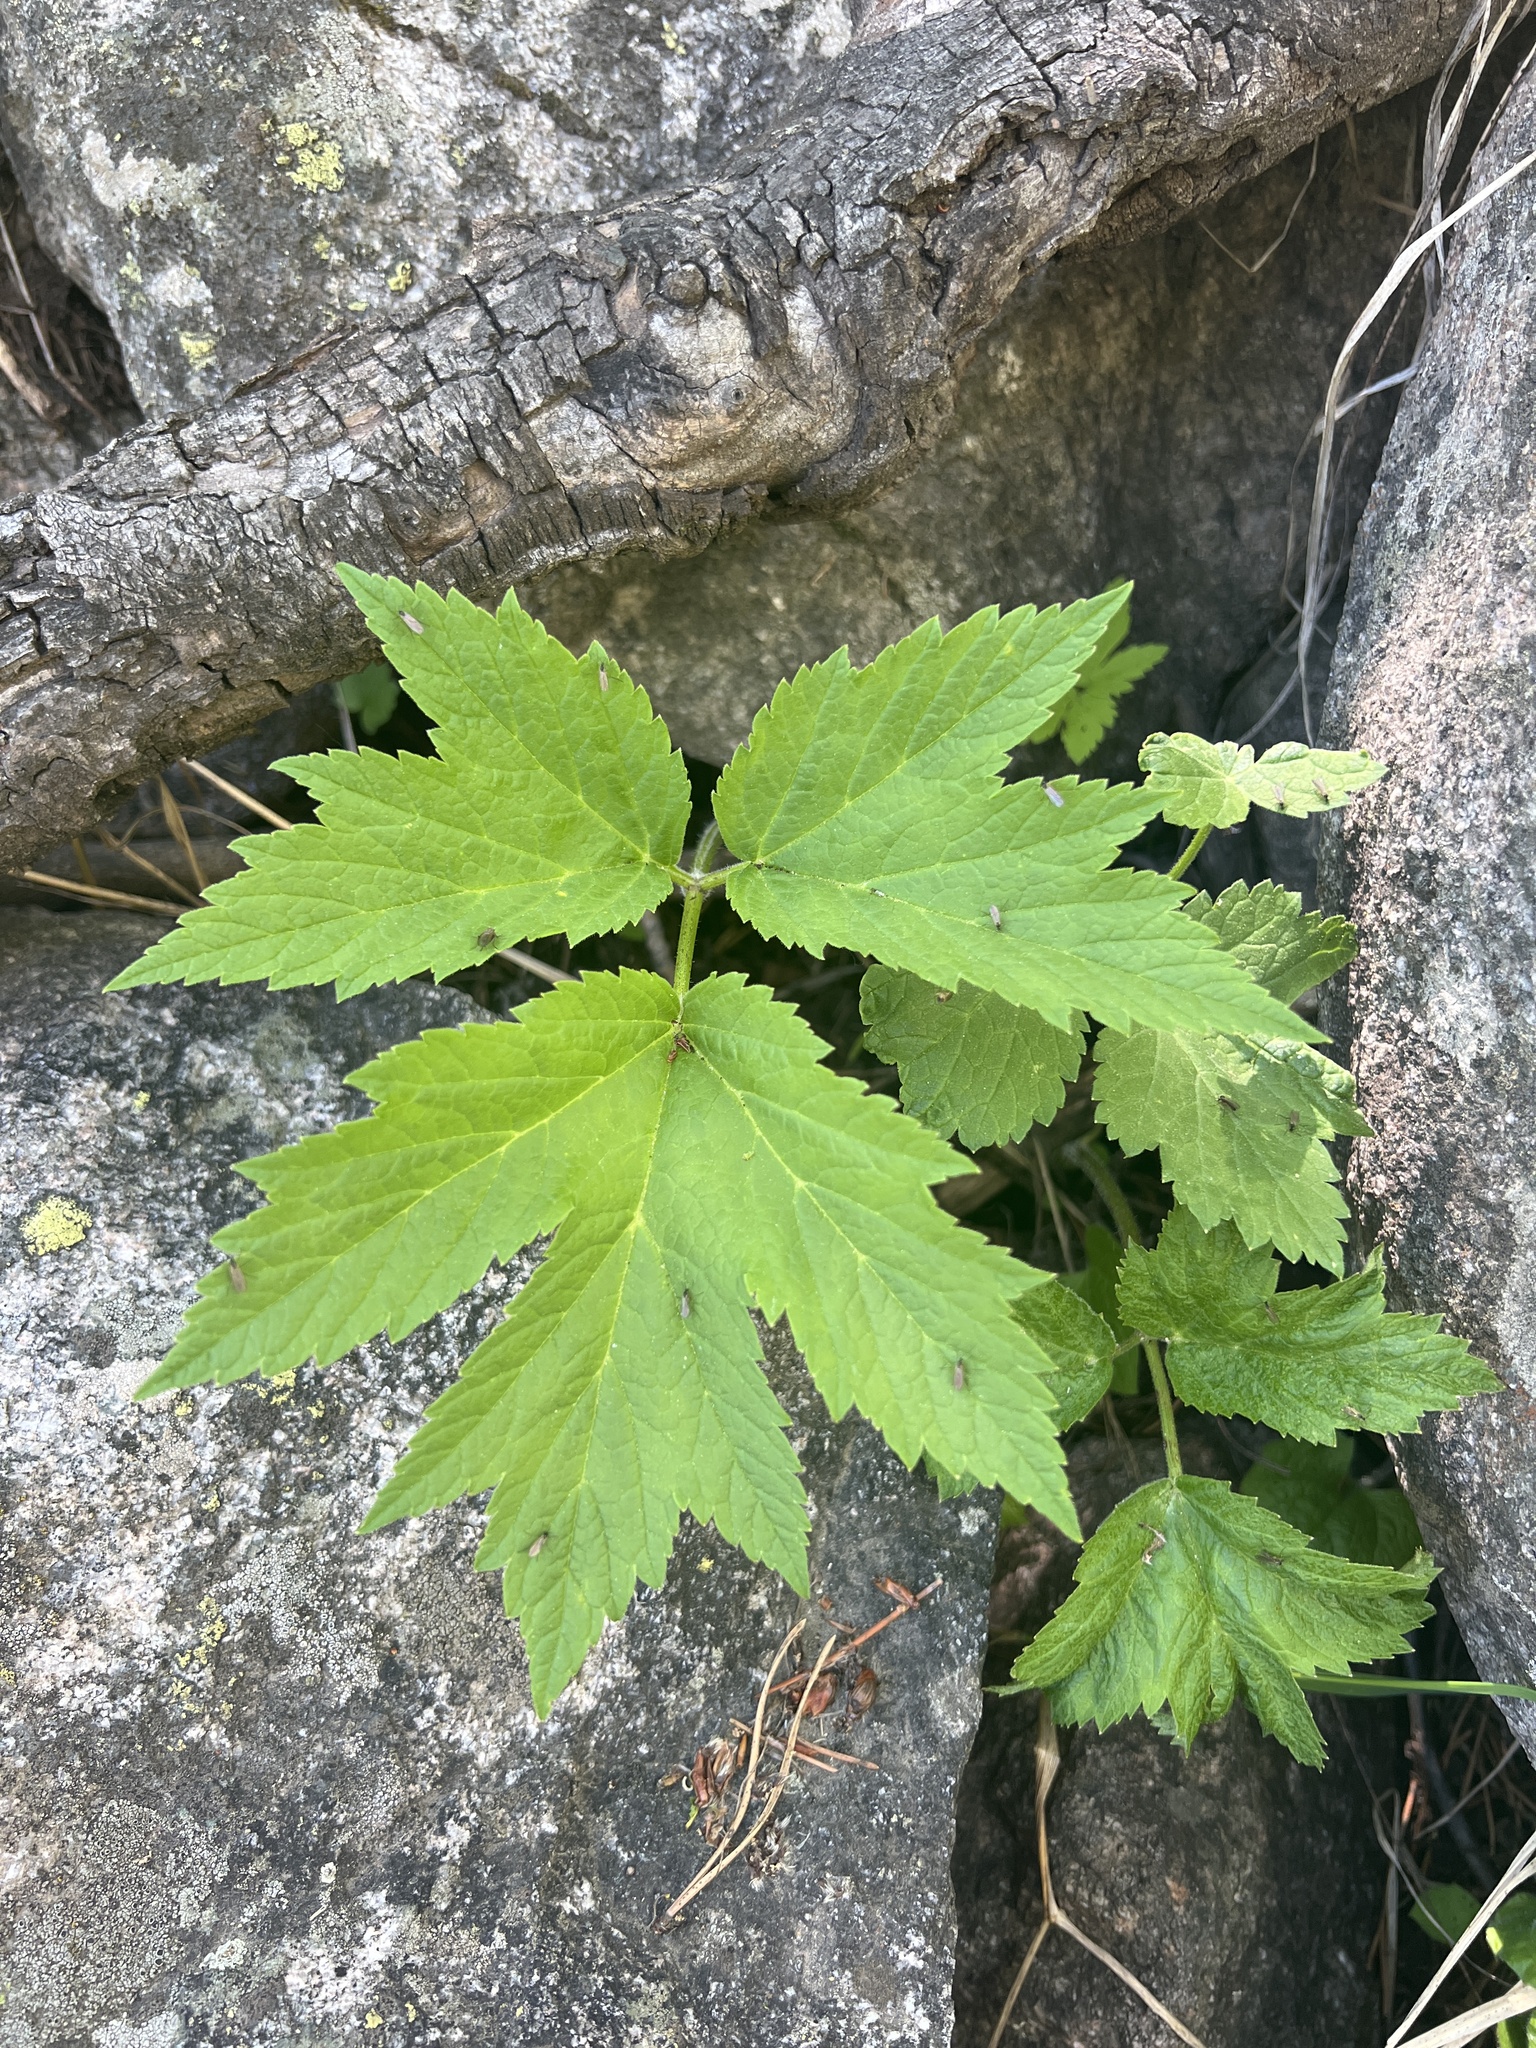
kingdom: Plantae
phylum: Tracheophyta
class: Magnoliopsida
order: Apiales
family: Apiaceae
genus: Heracleum
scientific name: Heracleum maximum
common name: American cow parsnip
